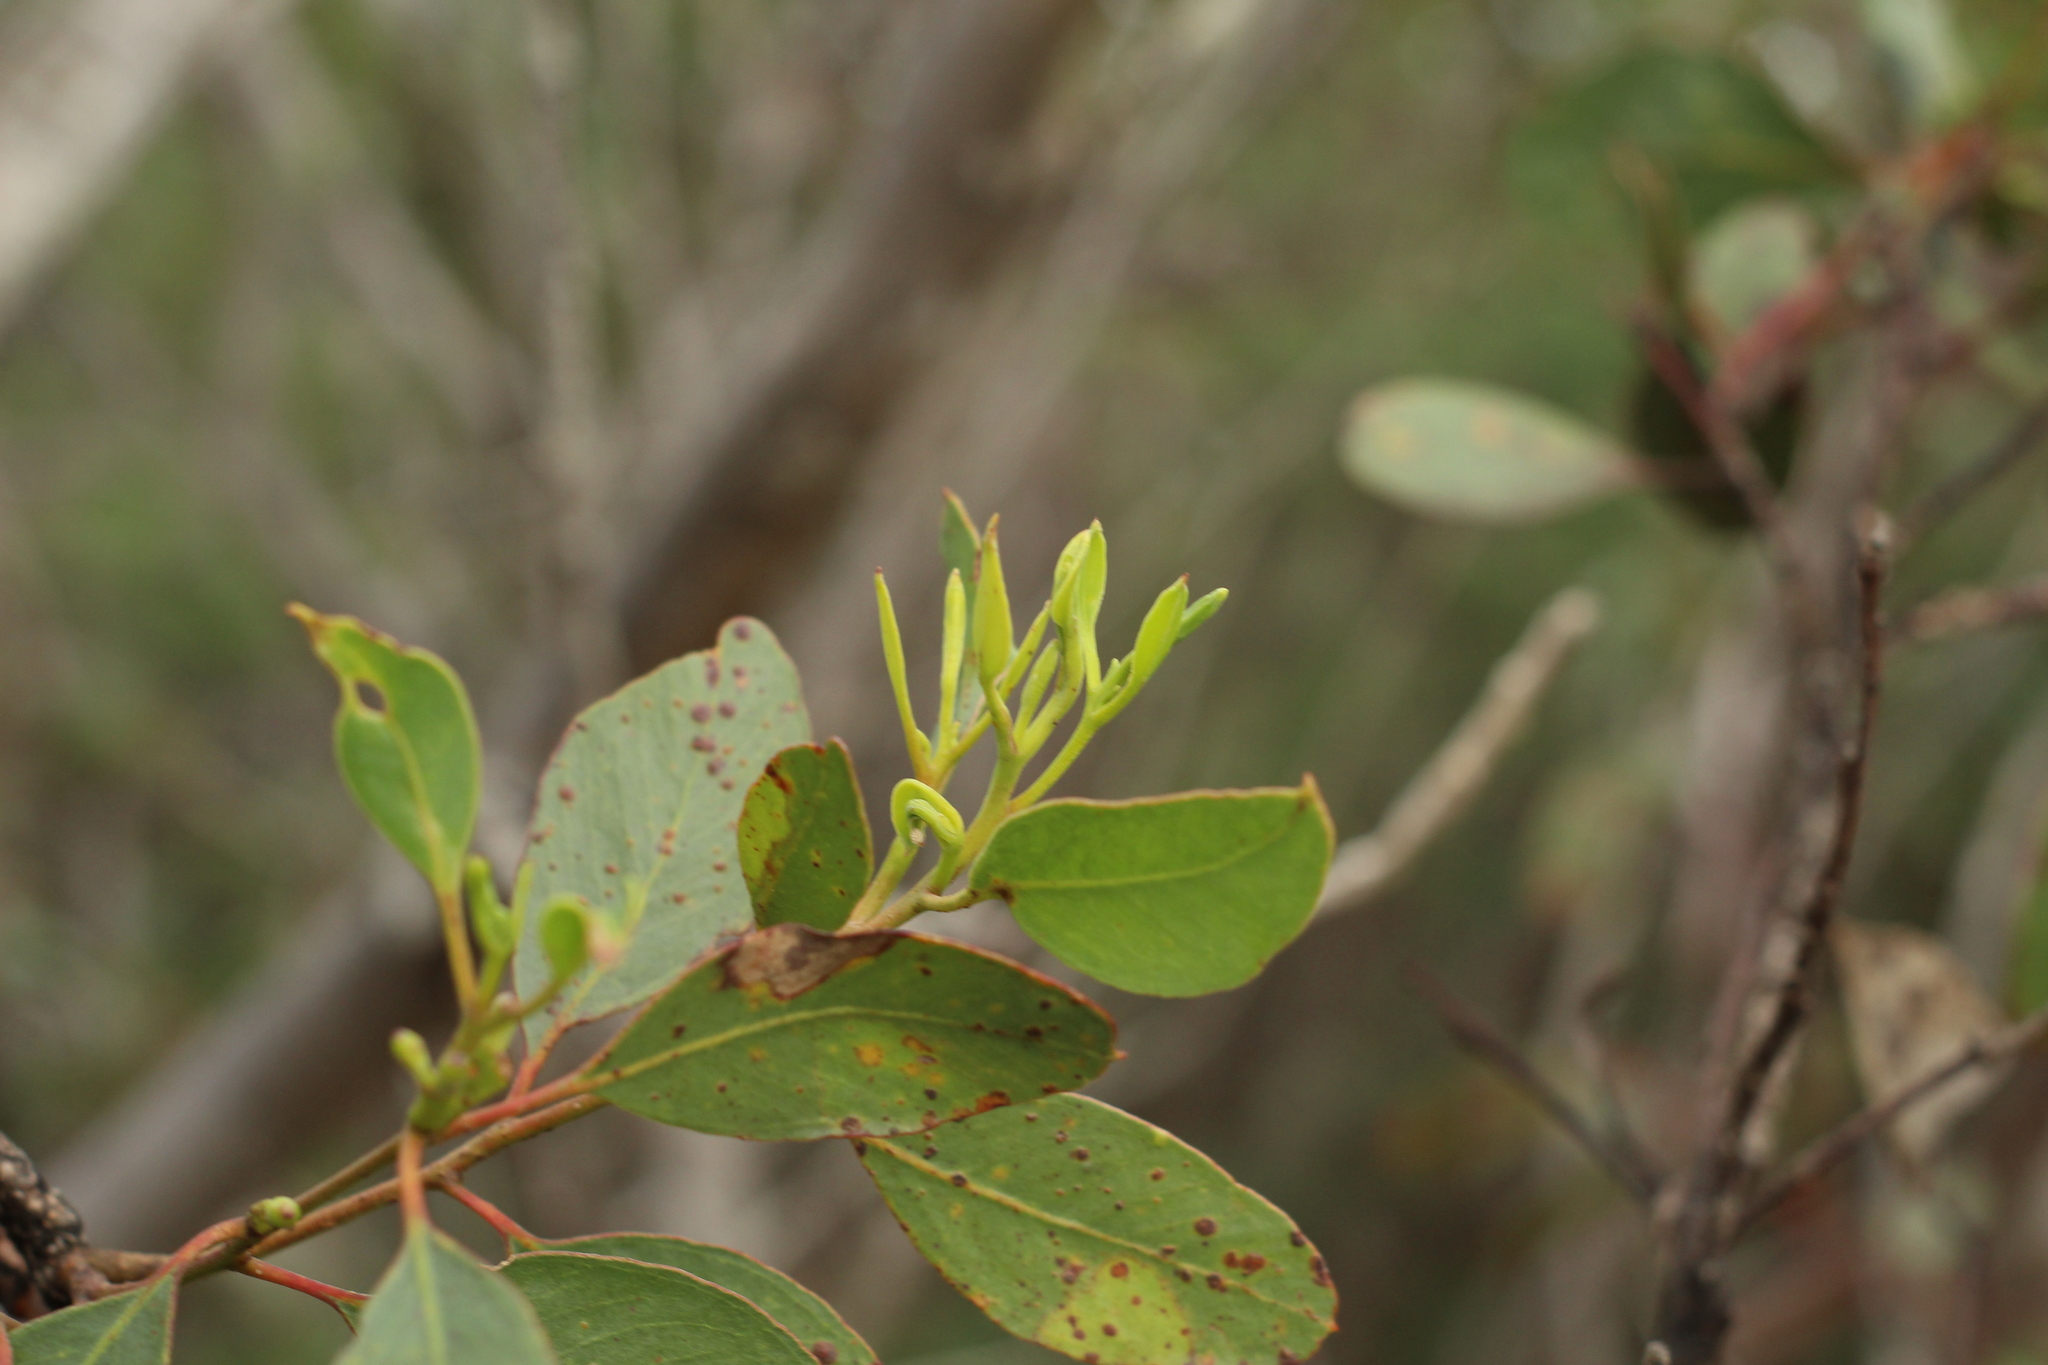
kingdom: Plantae
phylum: Tracheophyta
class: Magnoliopsida
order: Myrtales
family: Myrtaceae
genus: Eucalyptus
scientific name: Eucalyptus angulosa
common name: Ridge-fruited mallee
